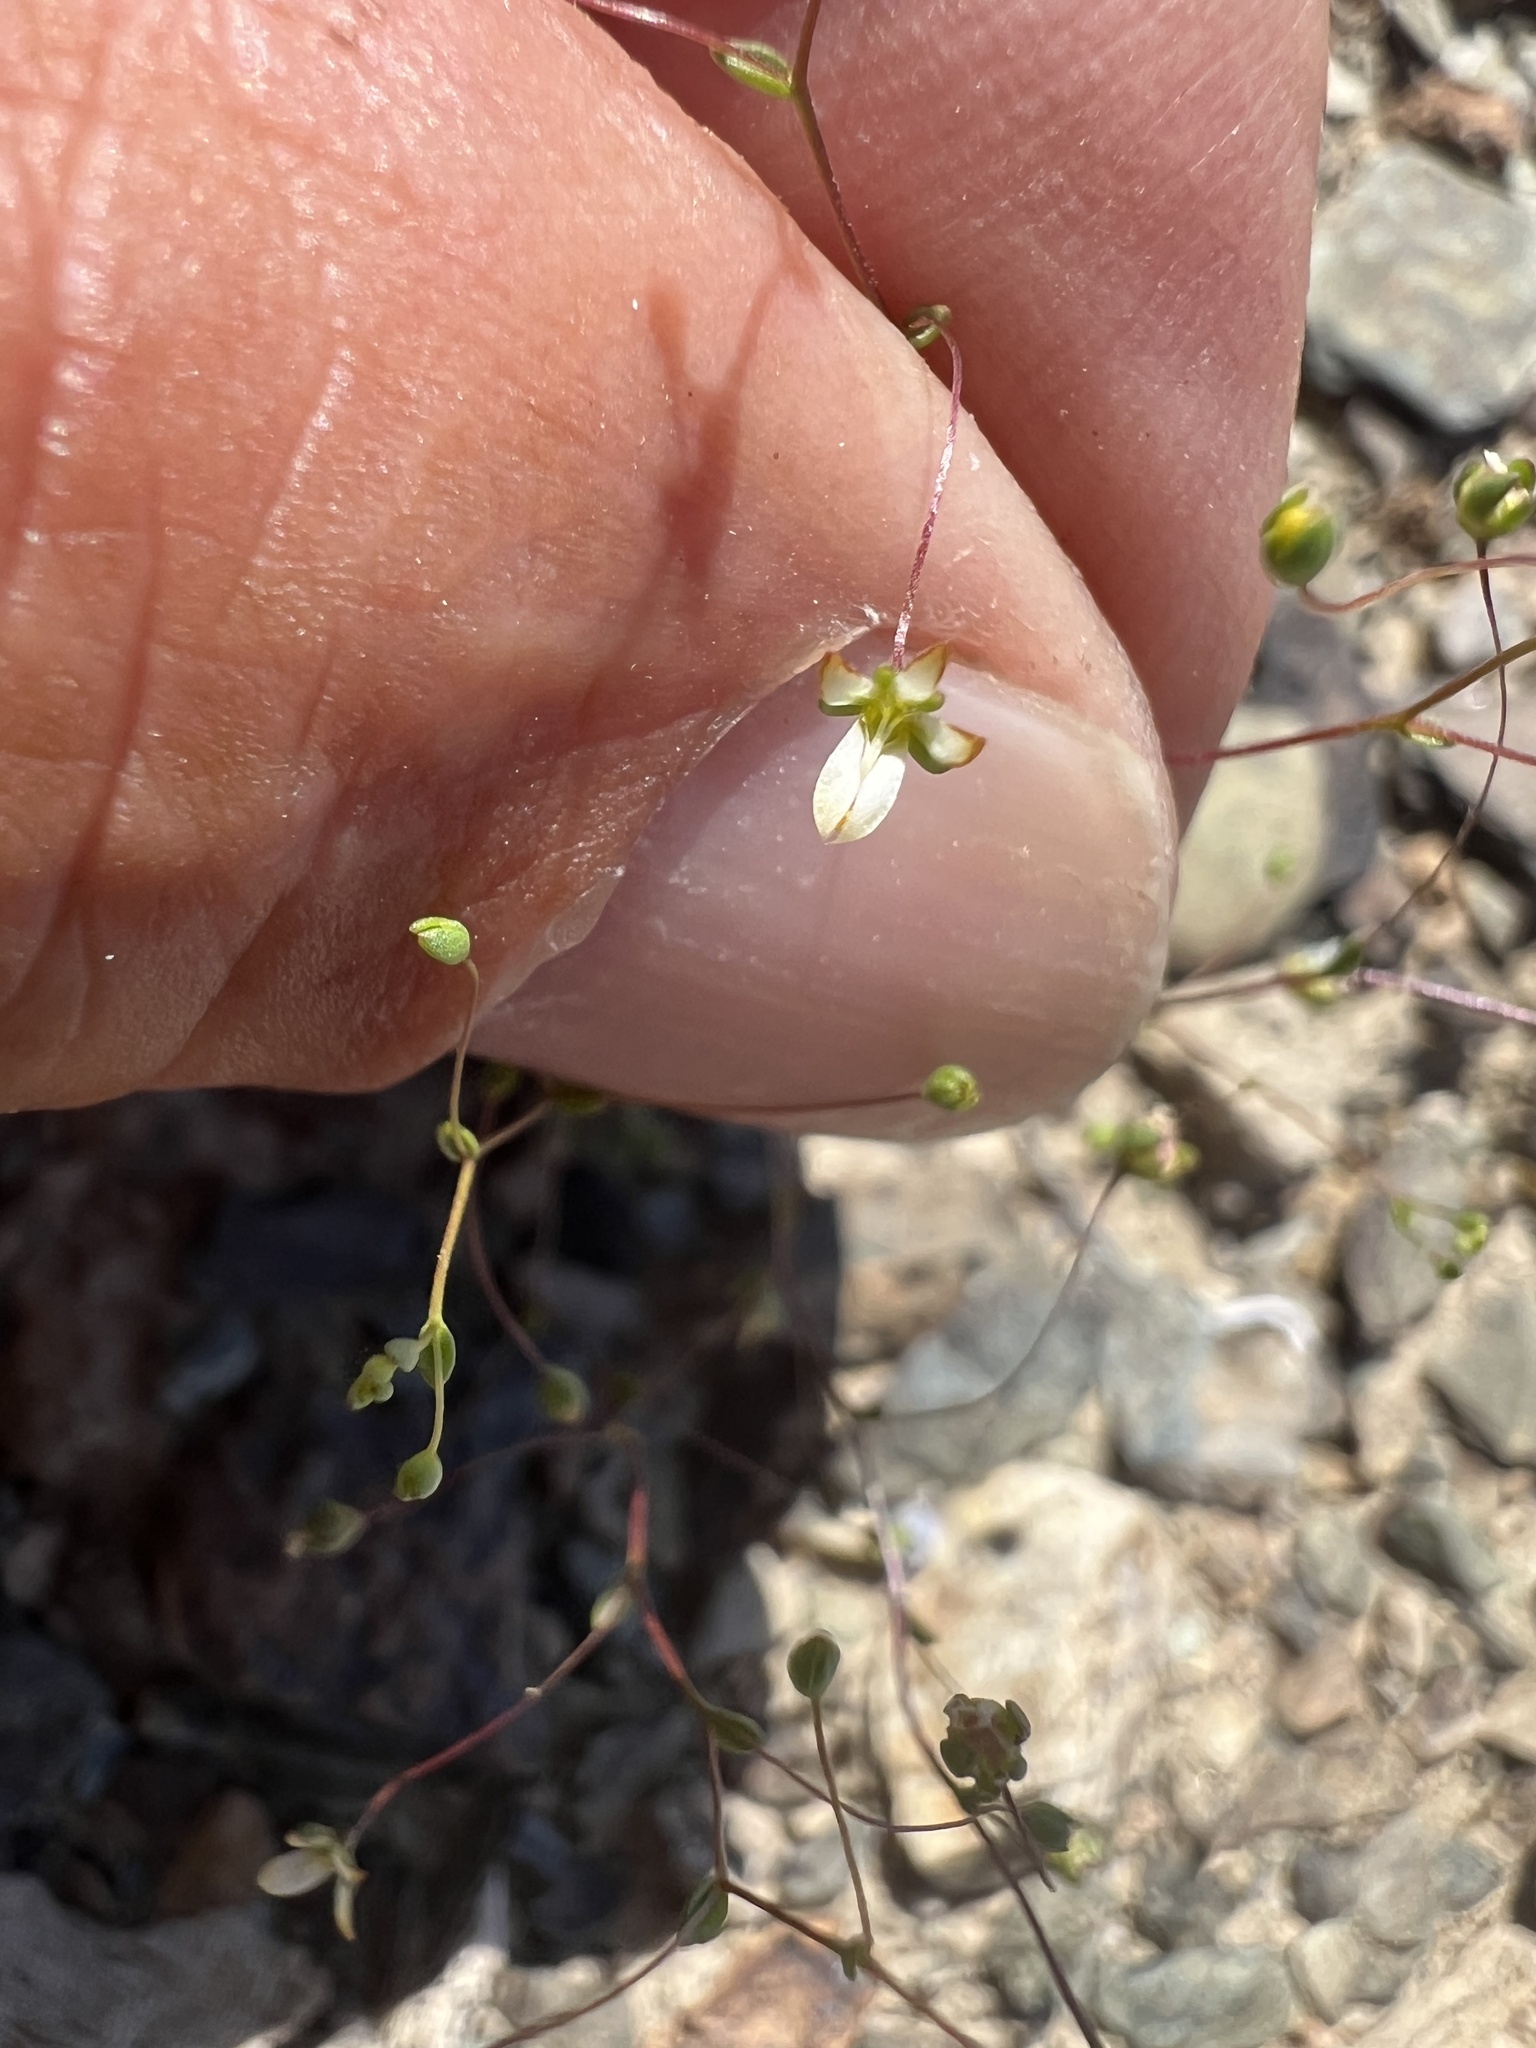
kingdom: Plantae
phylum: Tracheophyta
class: Magnoliopsida
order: Asterales
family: Campanulaceae
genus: Nemacladus
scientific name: Nemacladus morefieldii
